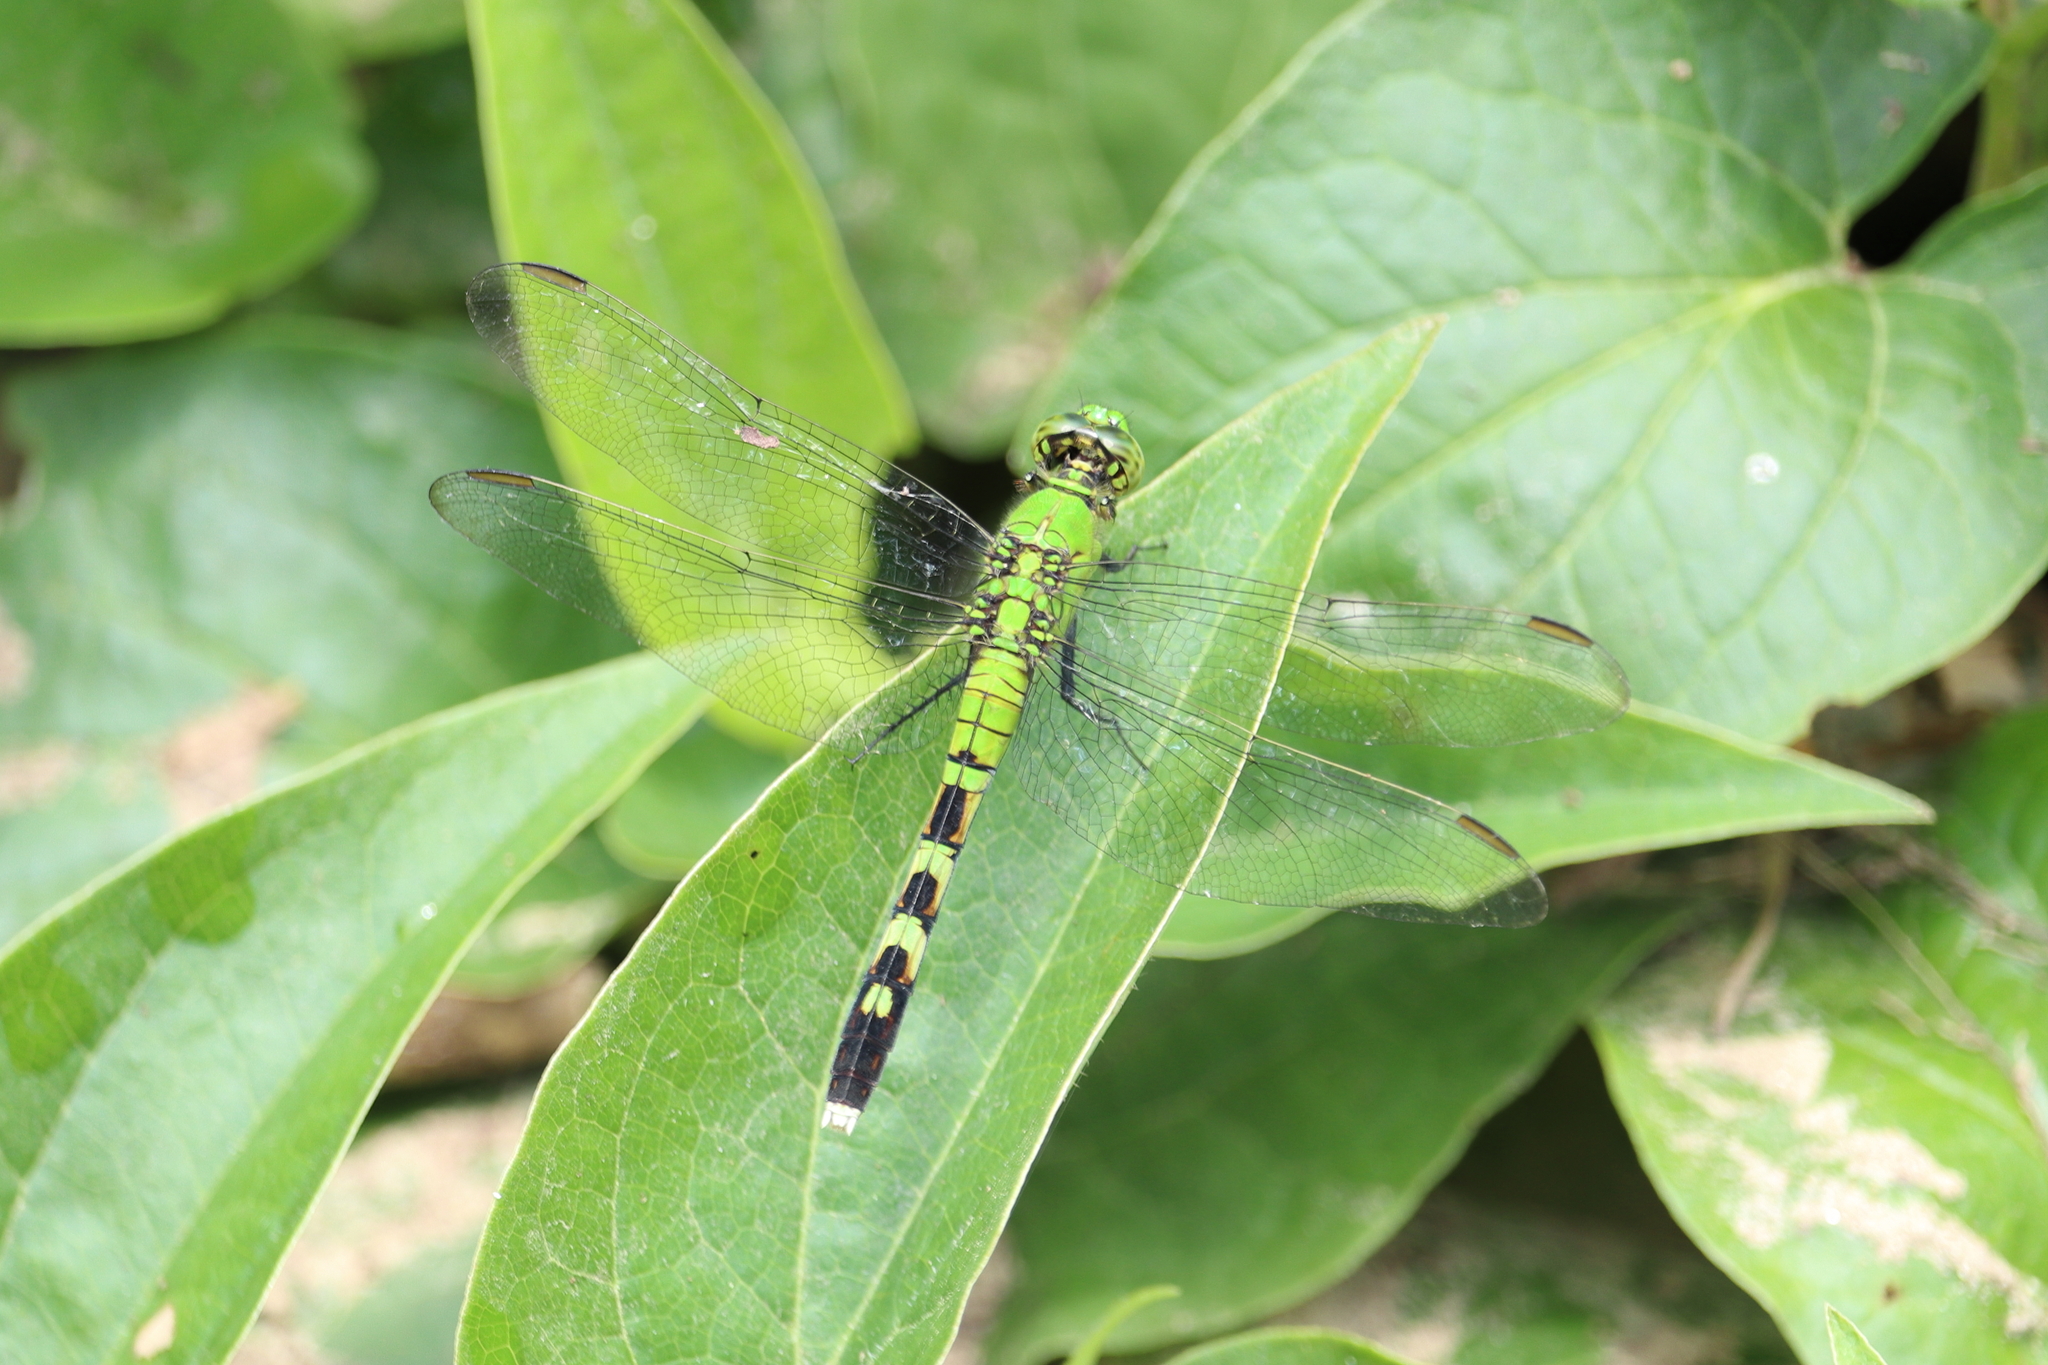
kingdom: Animalia
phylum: Arthropoda
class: Insecta
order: Odonata
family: Libellulidae
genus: Erythemis
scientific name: Erythemis simplicicollis
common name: Eastern pondhawk
